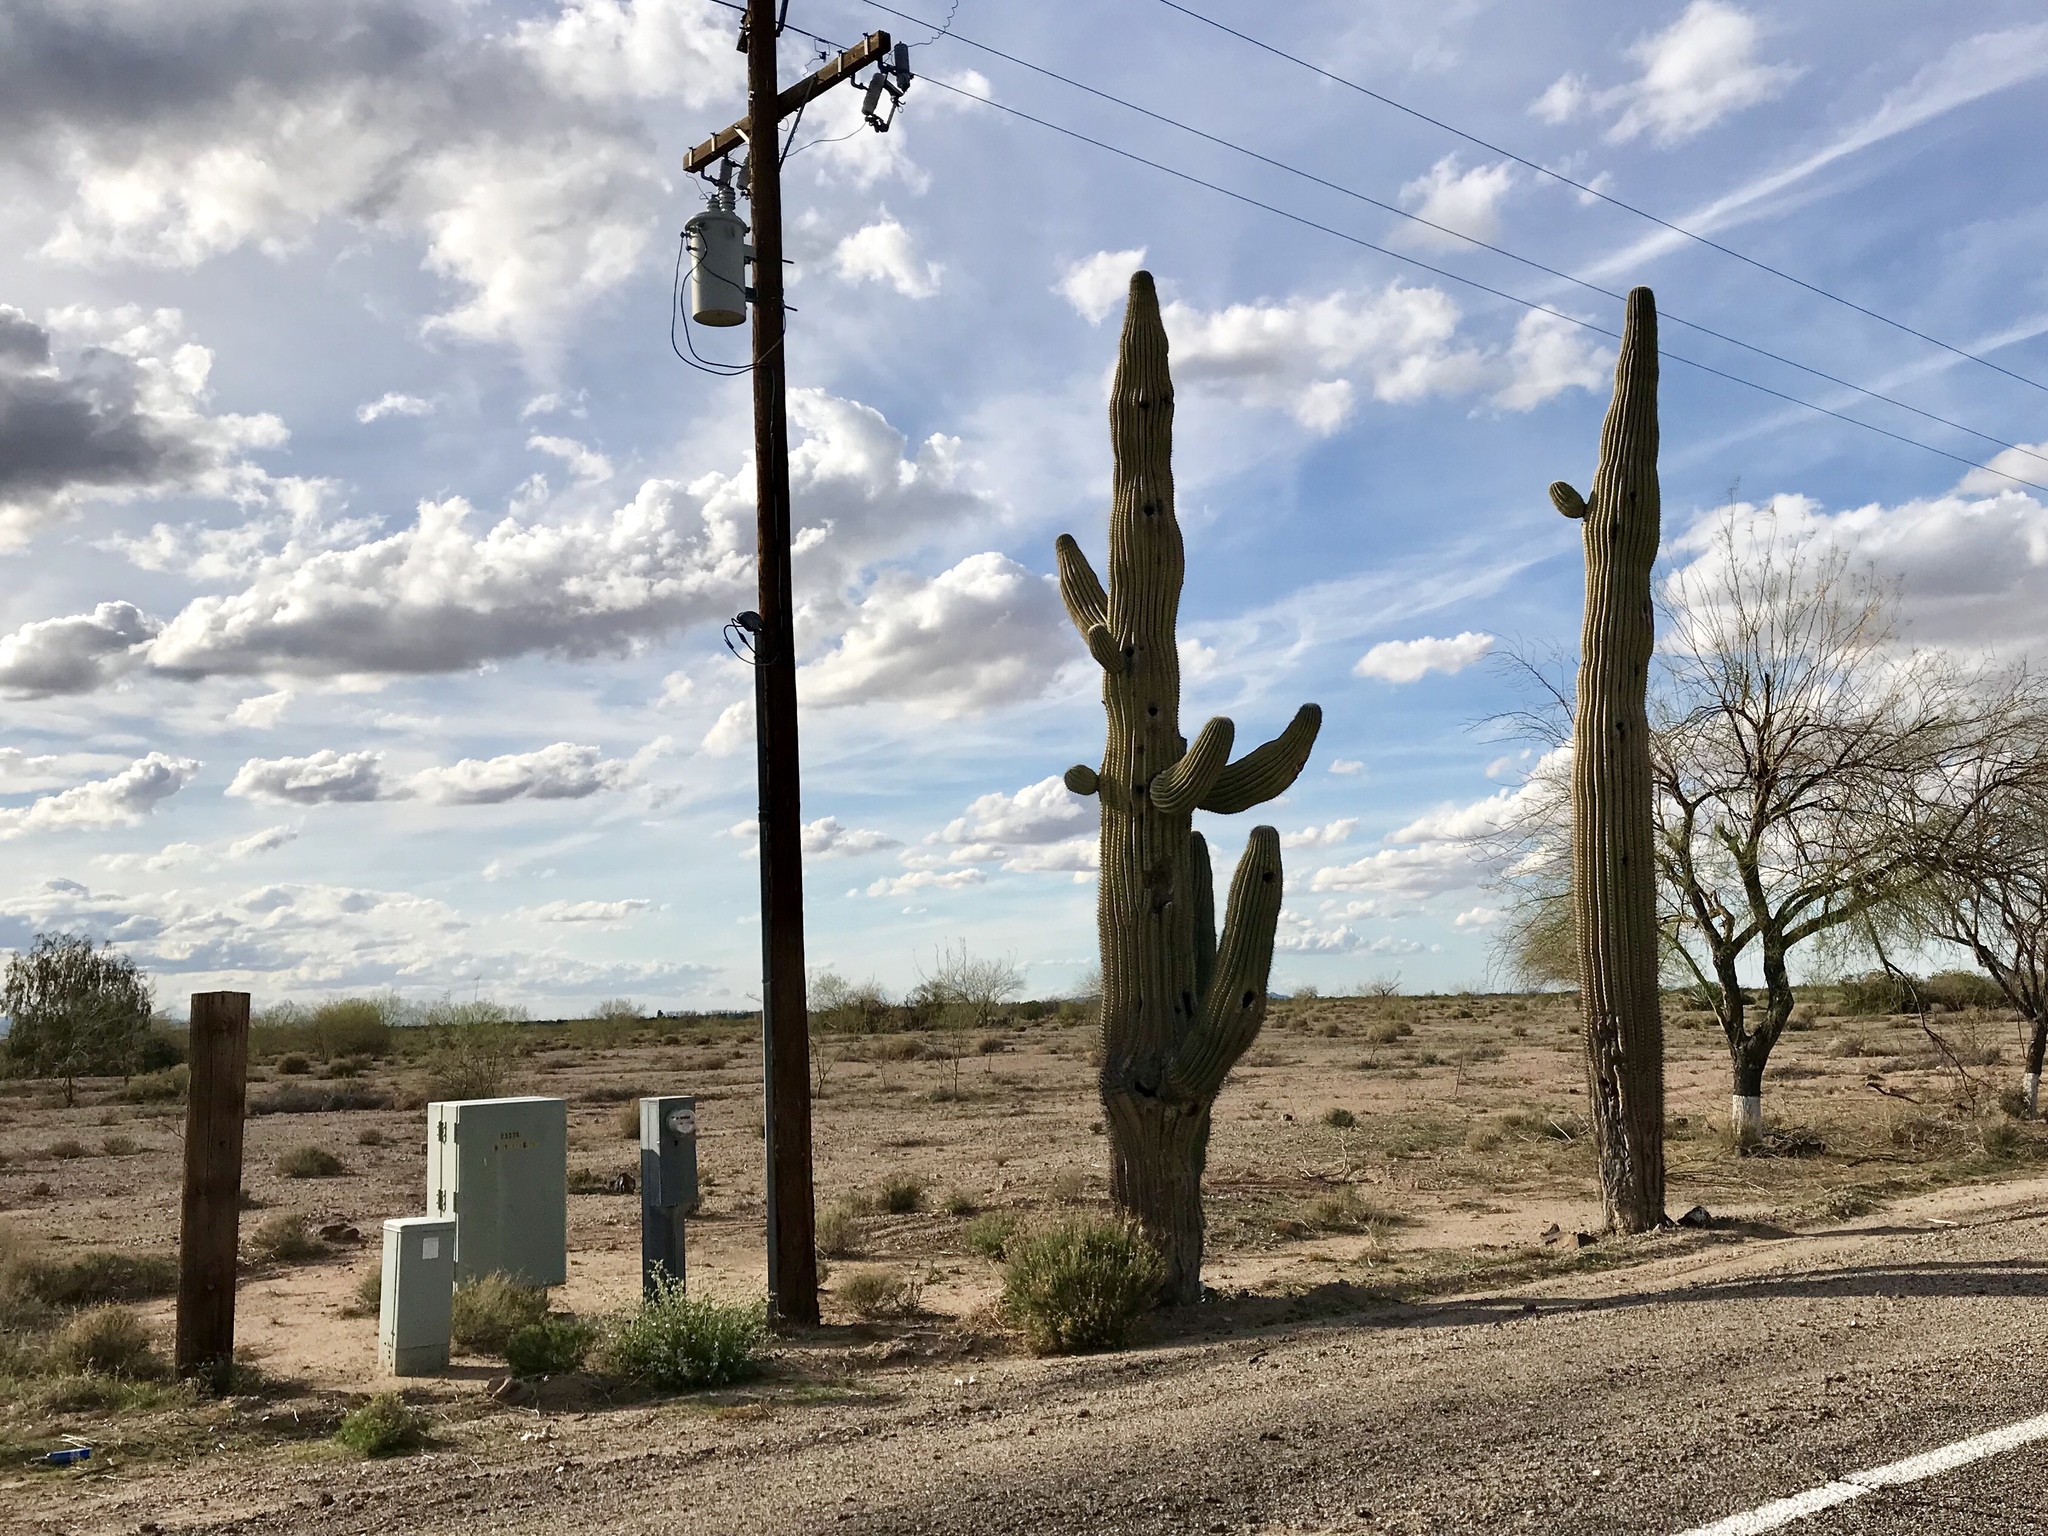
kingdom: Plantae
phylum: Tracheophyta
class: Magnoliopsida
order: Caryophyllales
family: Cactaceae
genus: Carnegiea
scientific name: Carnegiea gigantea
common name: Saguaro
